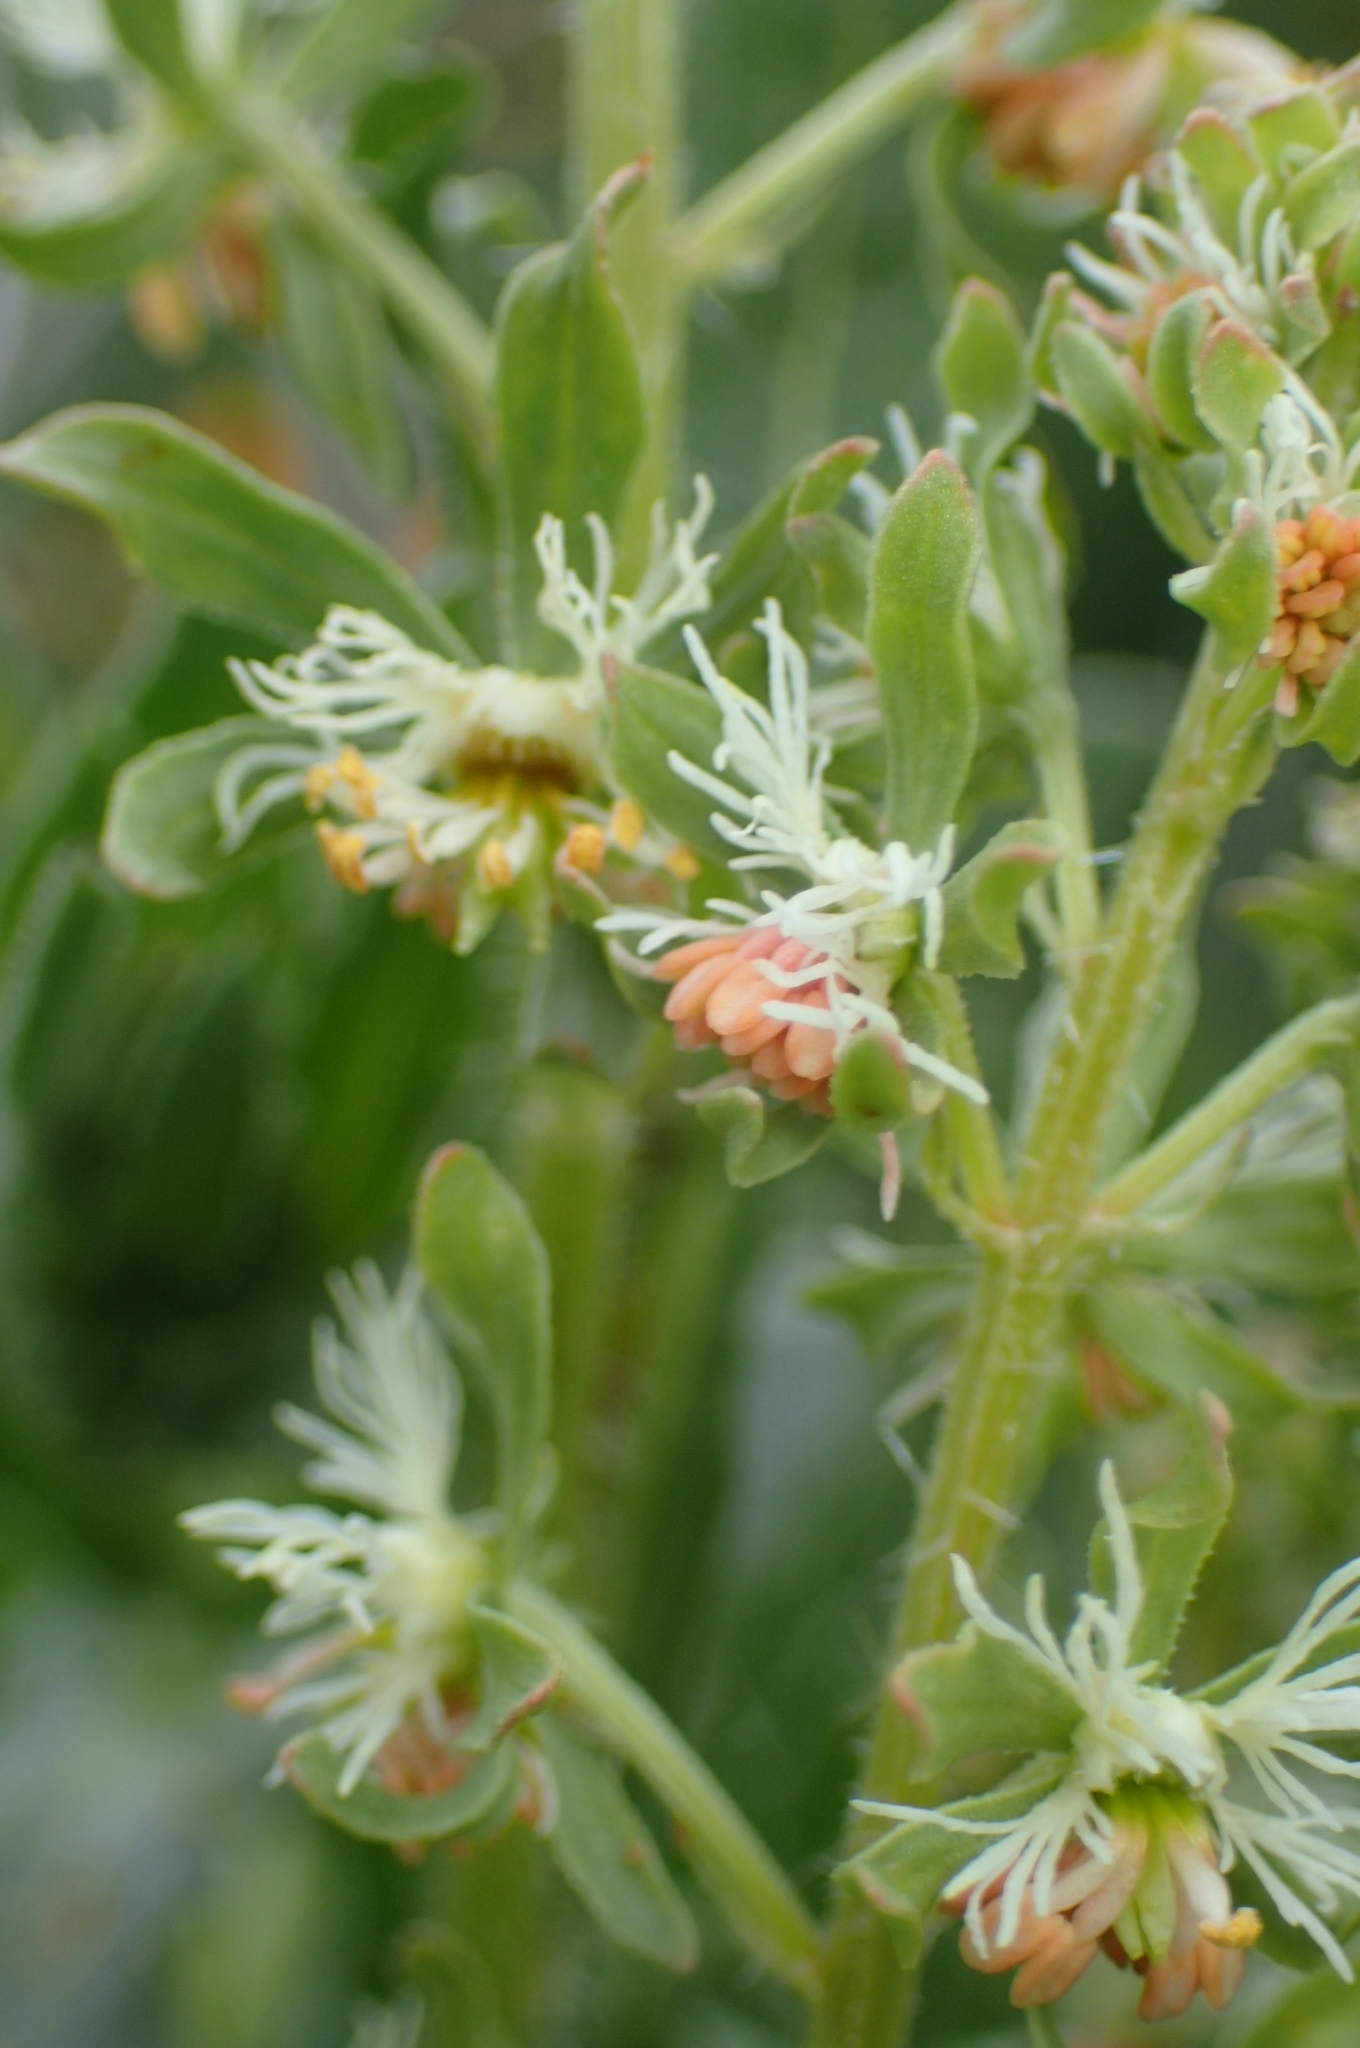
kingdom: Plantae
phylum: Tracheophyta
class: Magnoliopsida
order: Brassicales
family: Resedaceae
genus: Reseda
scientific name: Reseda phyteuma
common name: Corn mignonette
